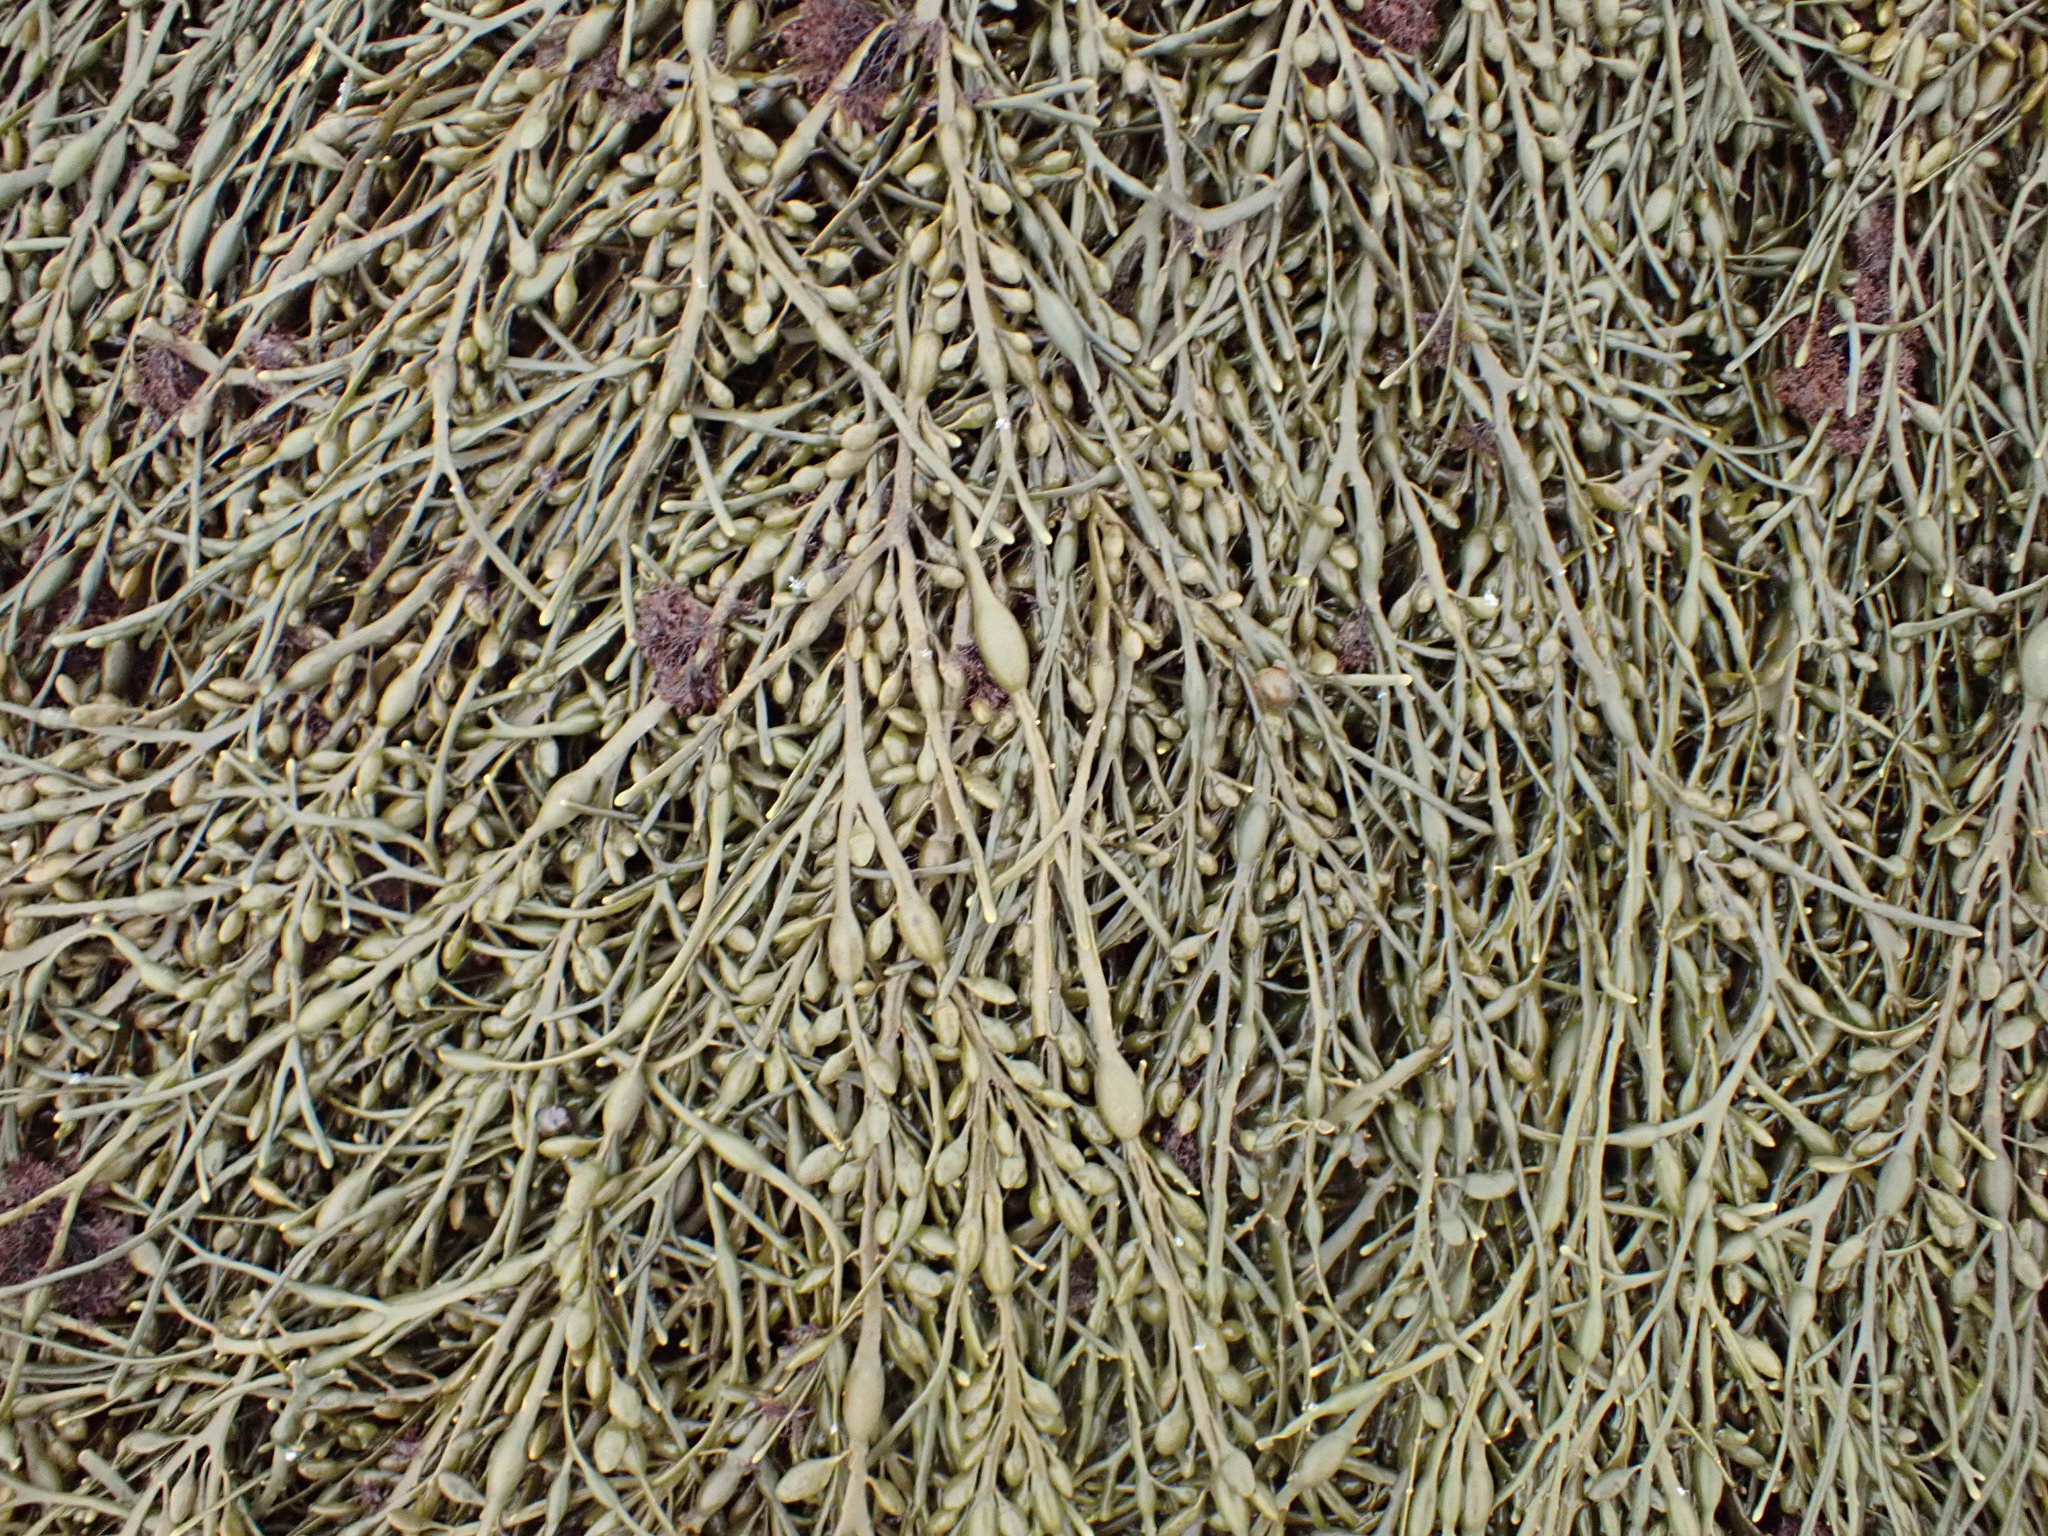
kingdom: Chromista
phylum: Ochrophyta
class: Phaeophyceae
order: Fucales
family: Fucaceae
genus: Ascophyllum
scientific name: Ascophyllum nodosum
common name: Knotted wrack
